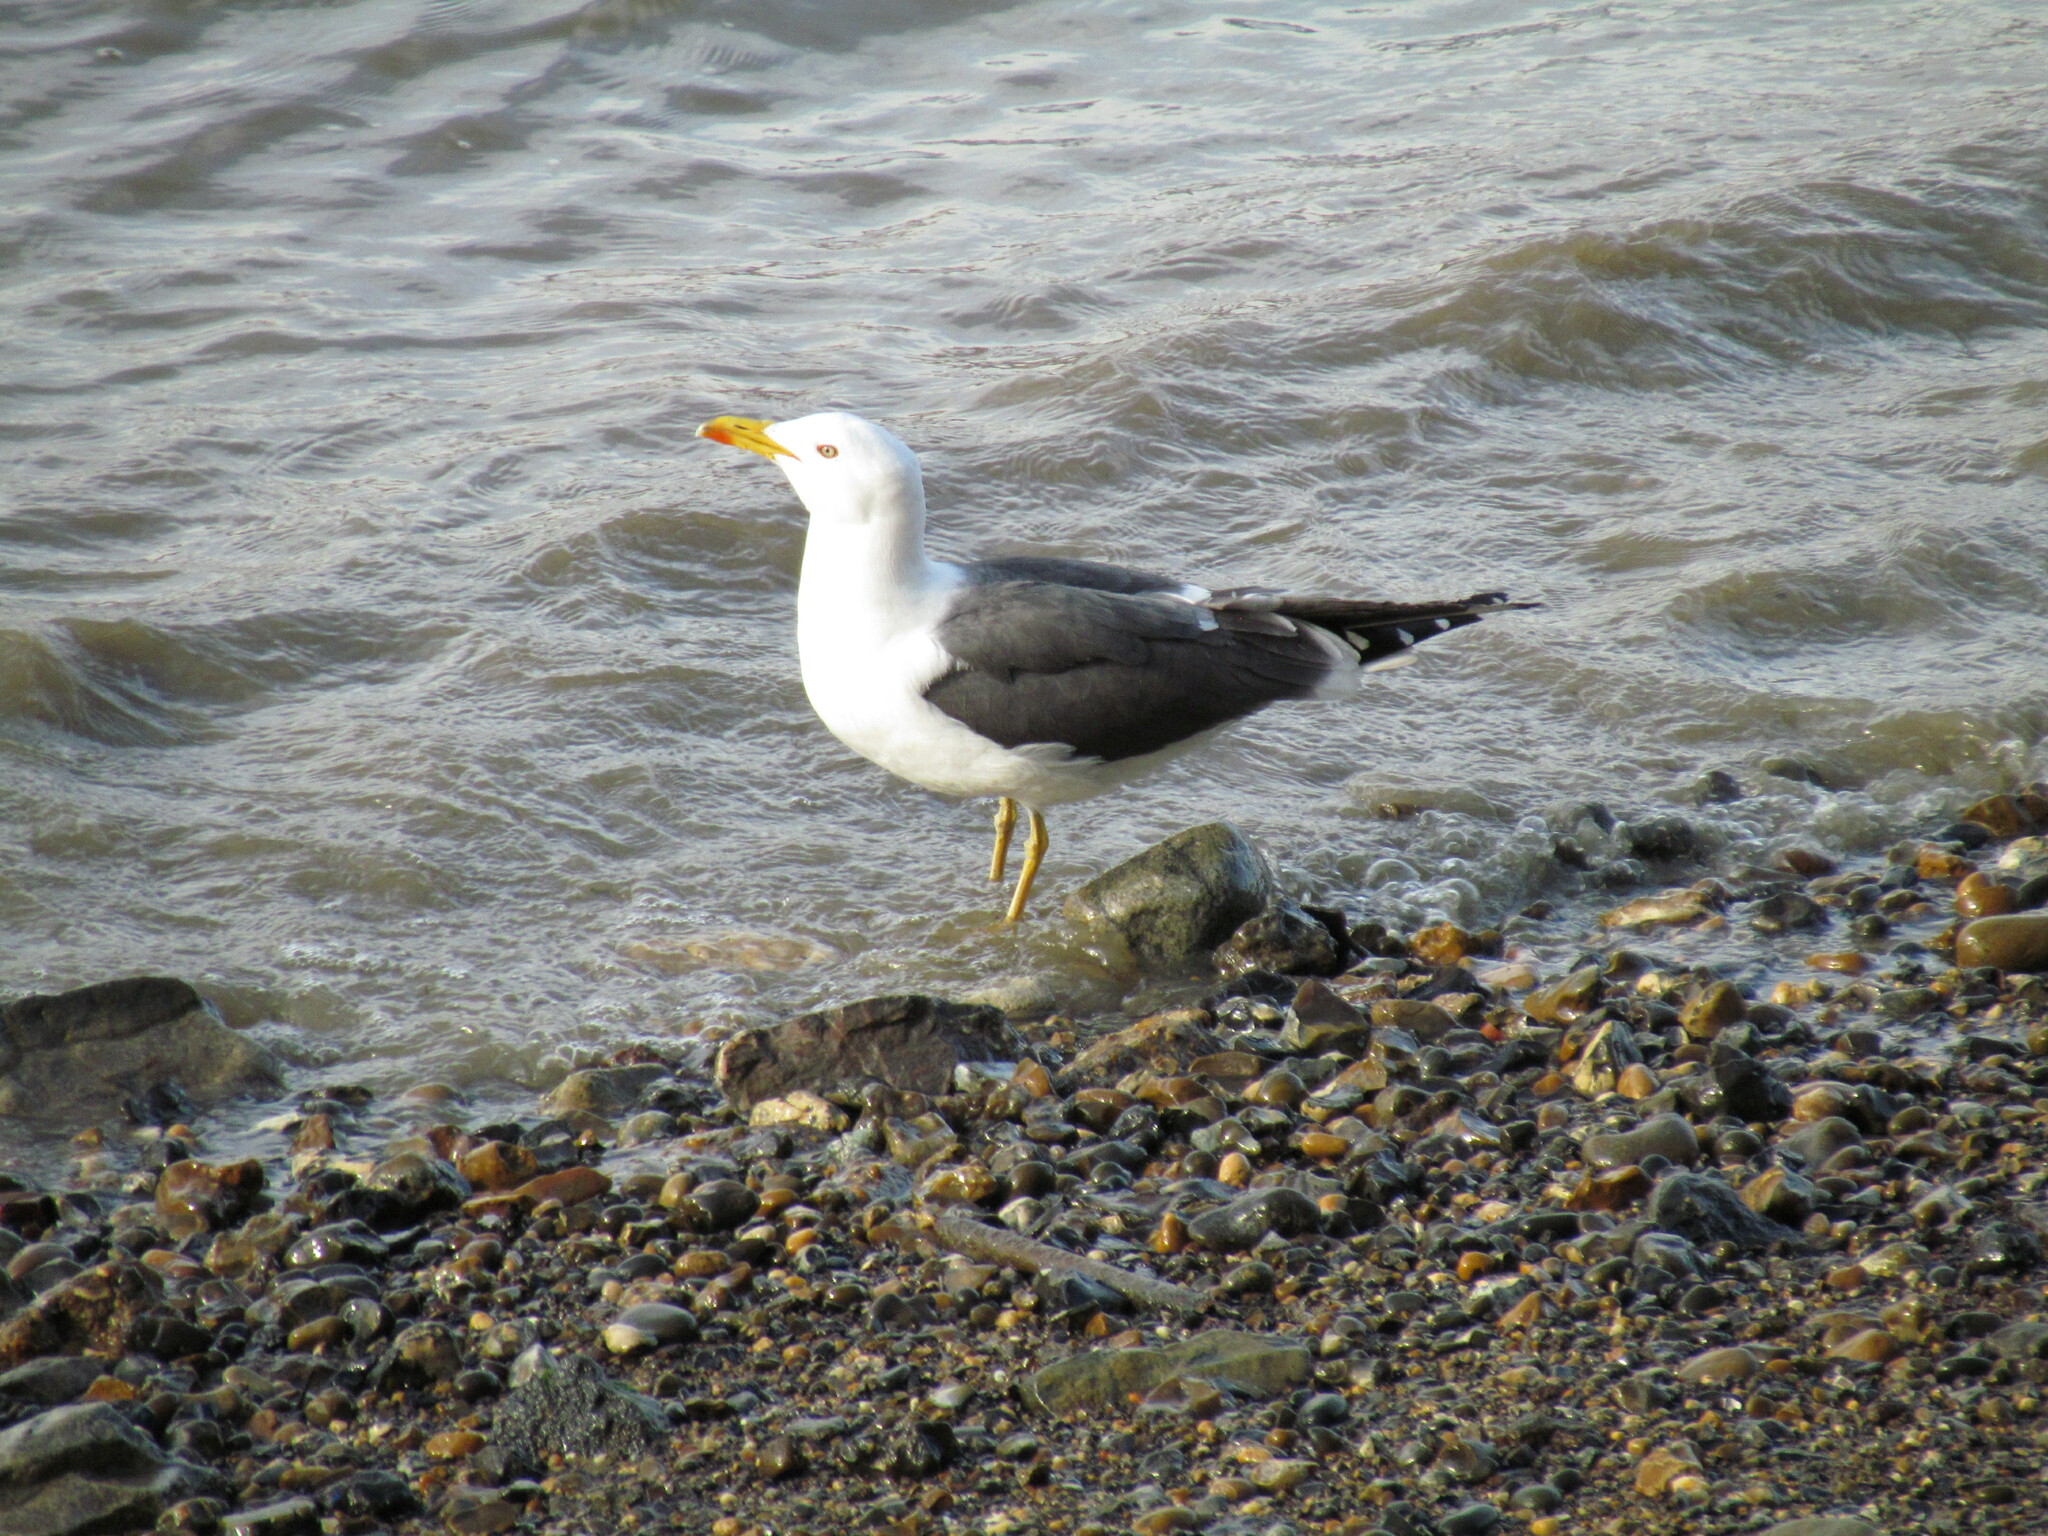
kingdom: Animalia
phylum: Chordata
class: Aves
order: Charadriiformes
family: Laridae
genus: Larus
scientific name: Larus fuscus
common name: Lesser black-backed gull
